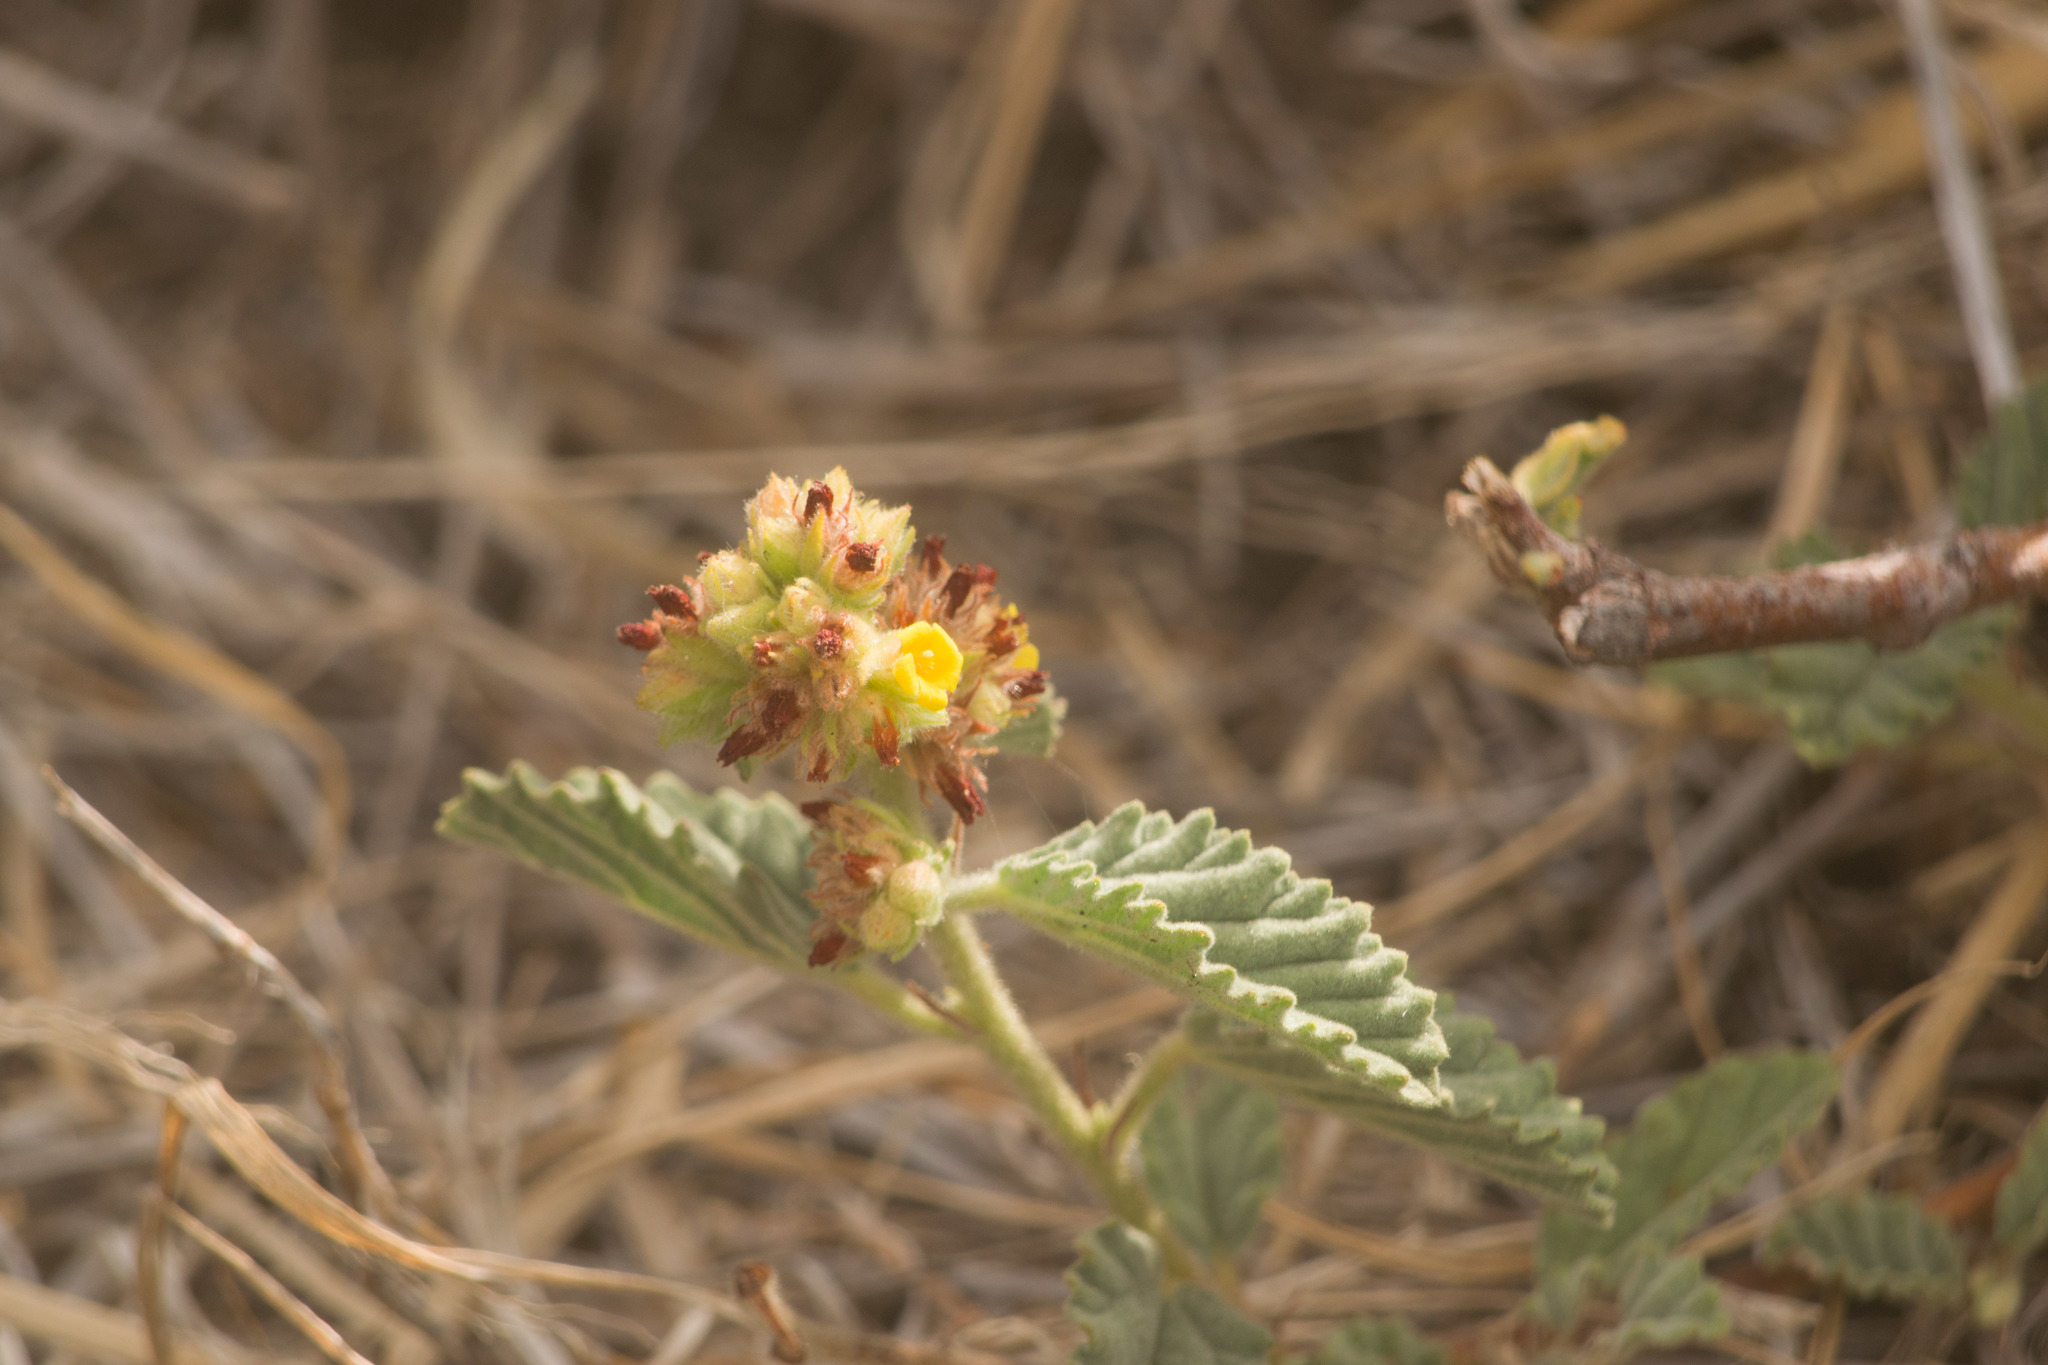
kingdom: Plantae
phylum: Tracheophyta
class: Magnoliopsida
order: Malvales
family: Malvaceae
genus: Waltheria
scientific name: Waltheria indica
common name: Leather-coat
